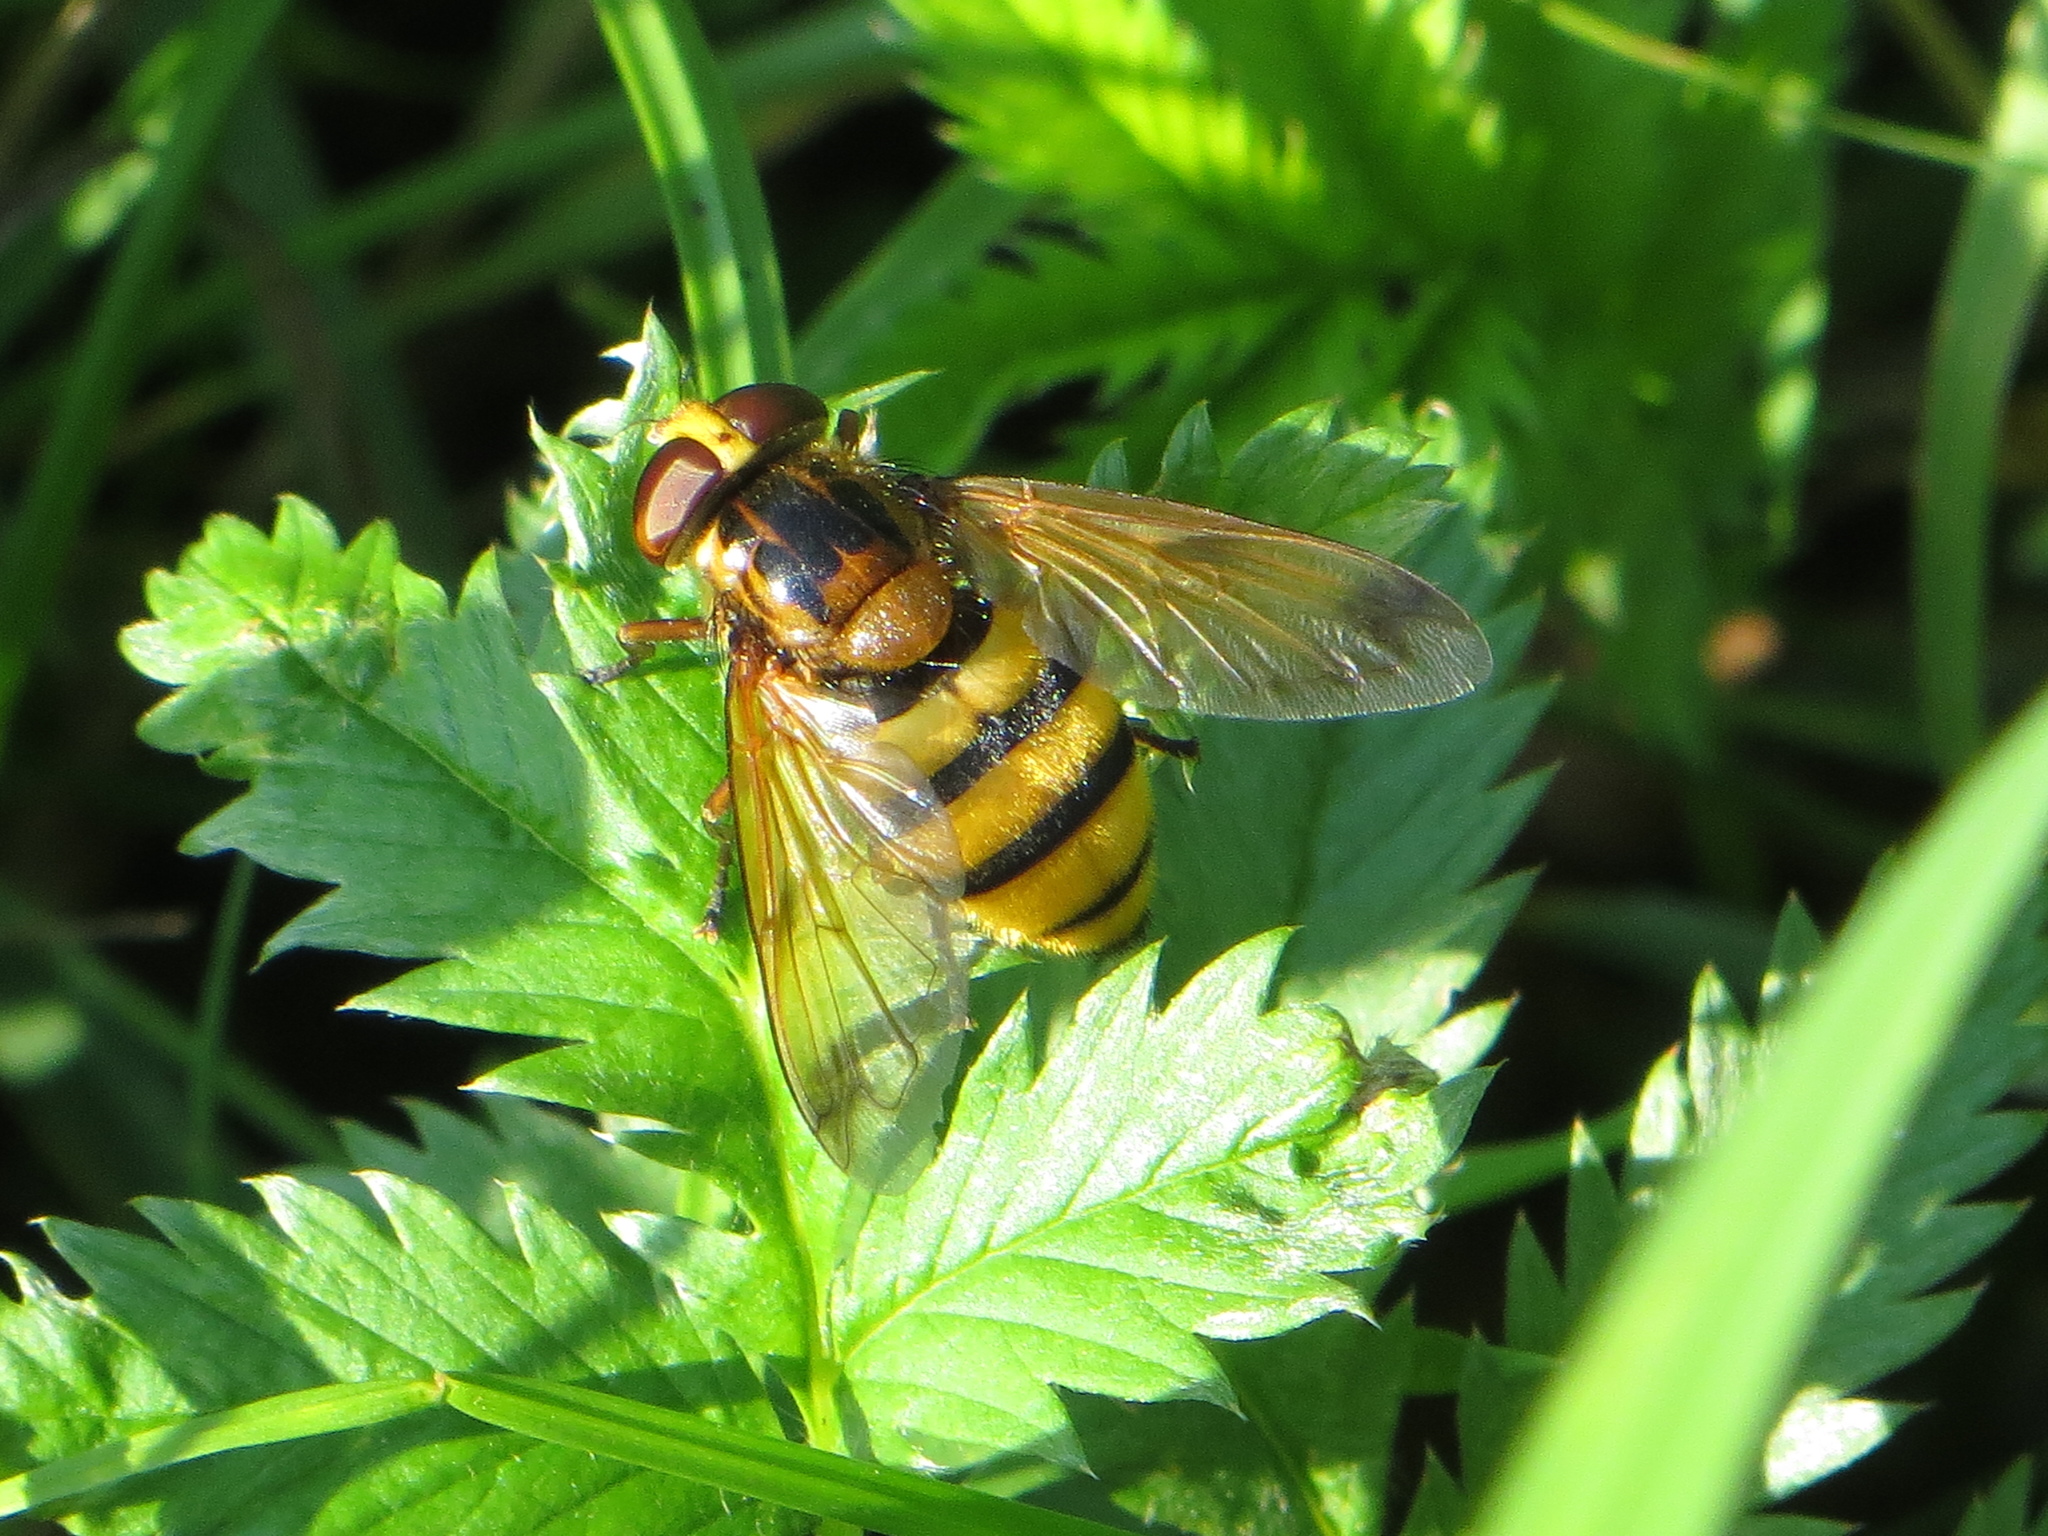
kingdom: Animalia
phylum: Arthropoda
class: Insecta
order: Diptera
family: Syrphidae
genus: Volucella
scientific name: Volucella inanis
